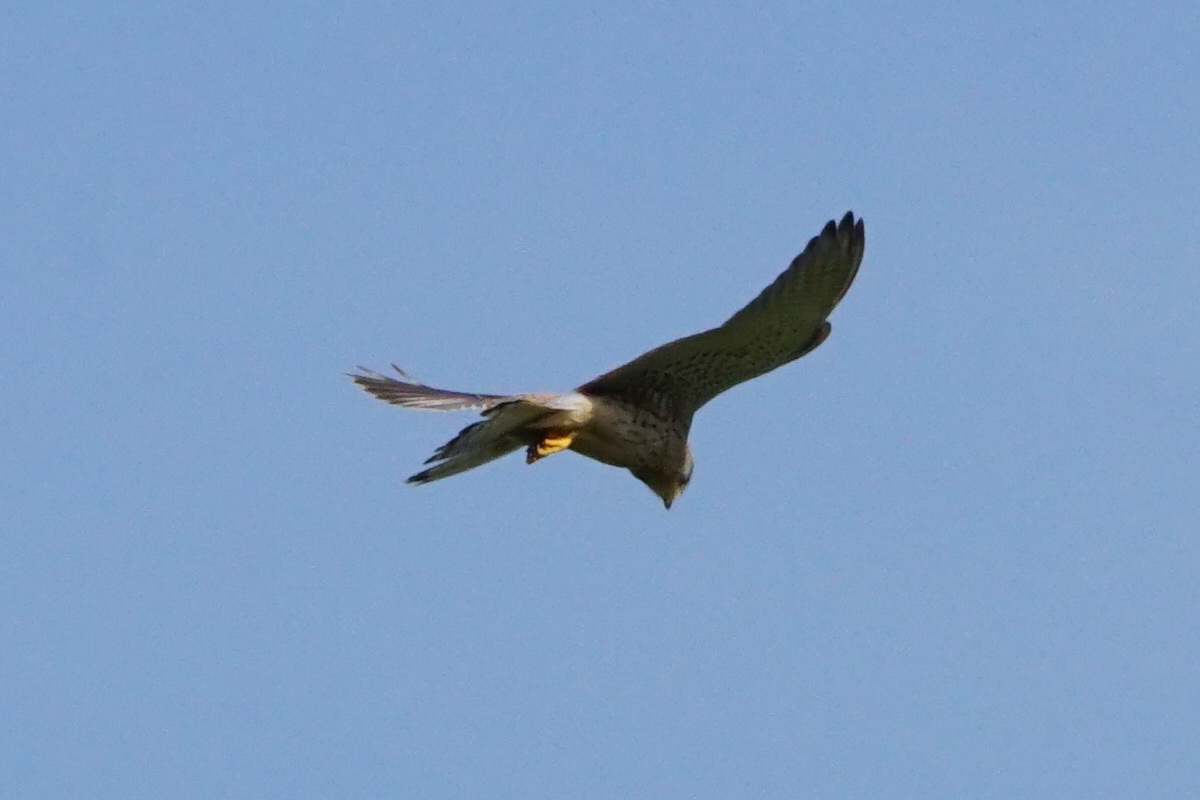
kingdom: Animalia
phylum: Chordata
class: Aves
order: Falconiformes
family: Falconidae
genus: Falco
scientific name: Falco tinnunculus
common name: Common kestrel
